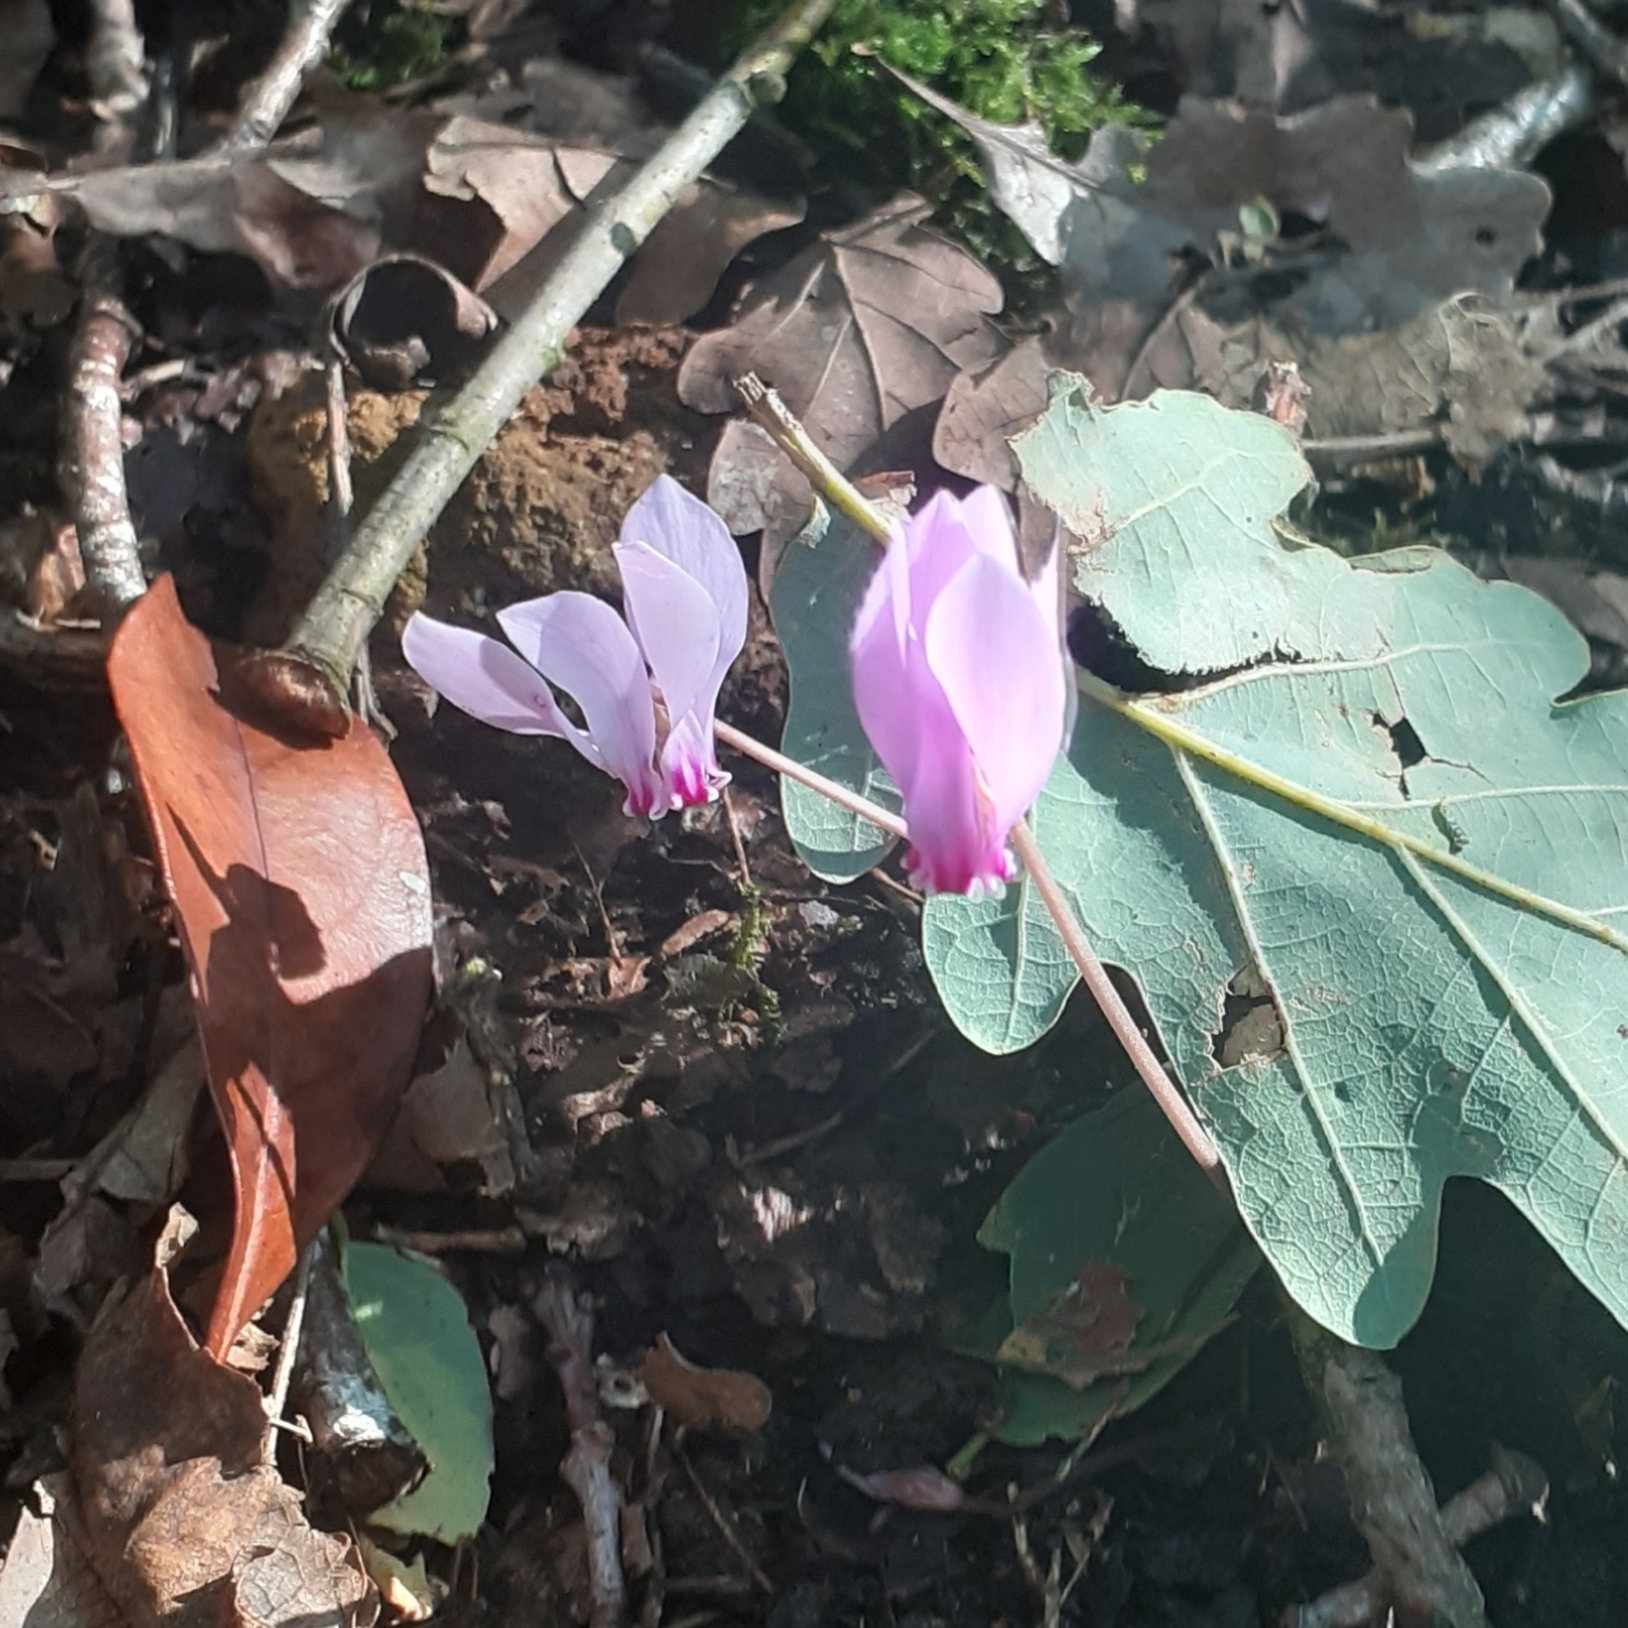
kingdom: Plantae
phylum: Tracheophyta
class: Magnoliopsida
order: Ericales
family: Primulaceae
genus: Cyclamen
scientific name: Cyclamen hederifolium
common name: Sowbread
